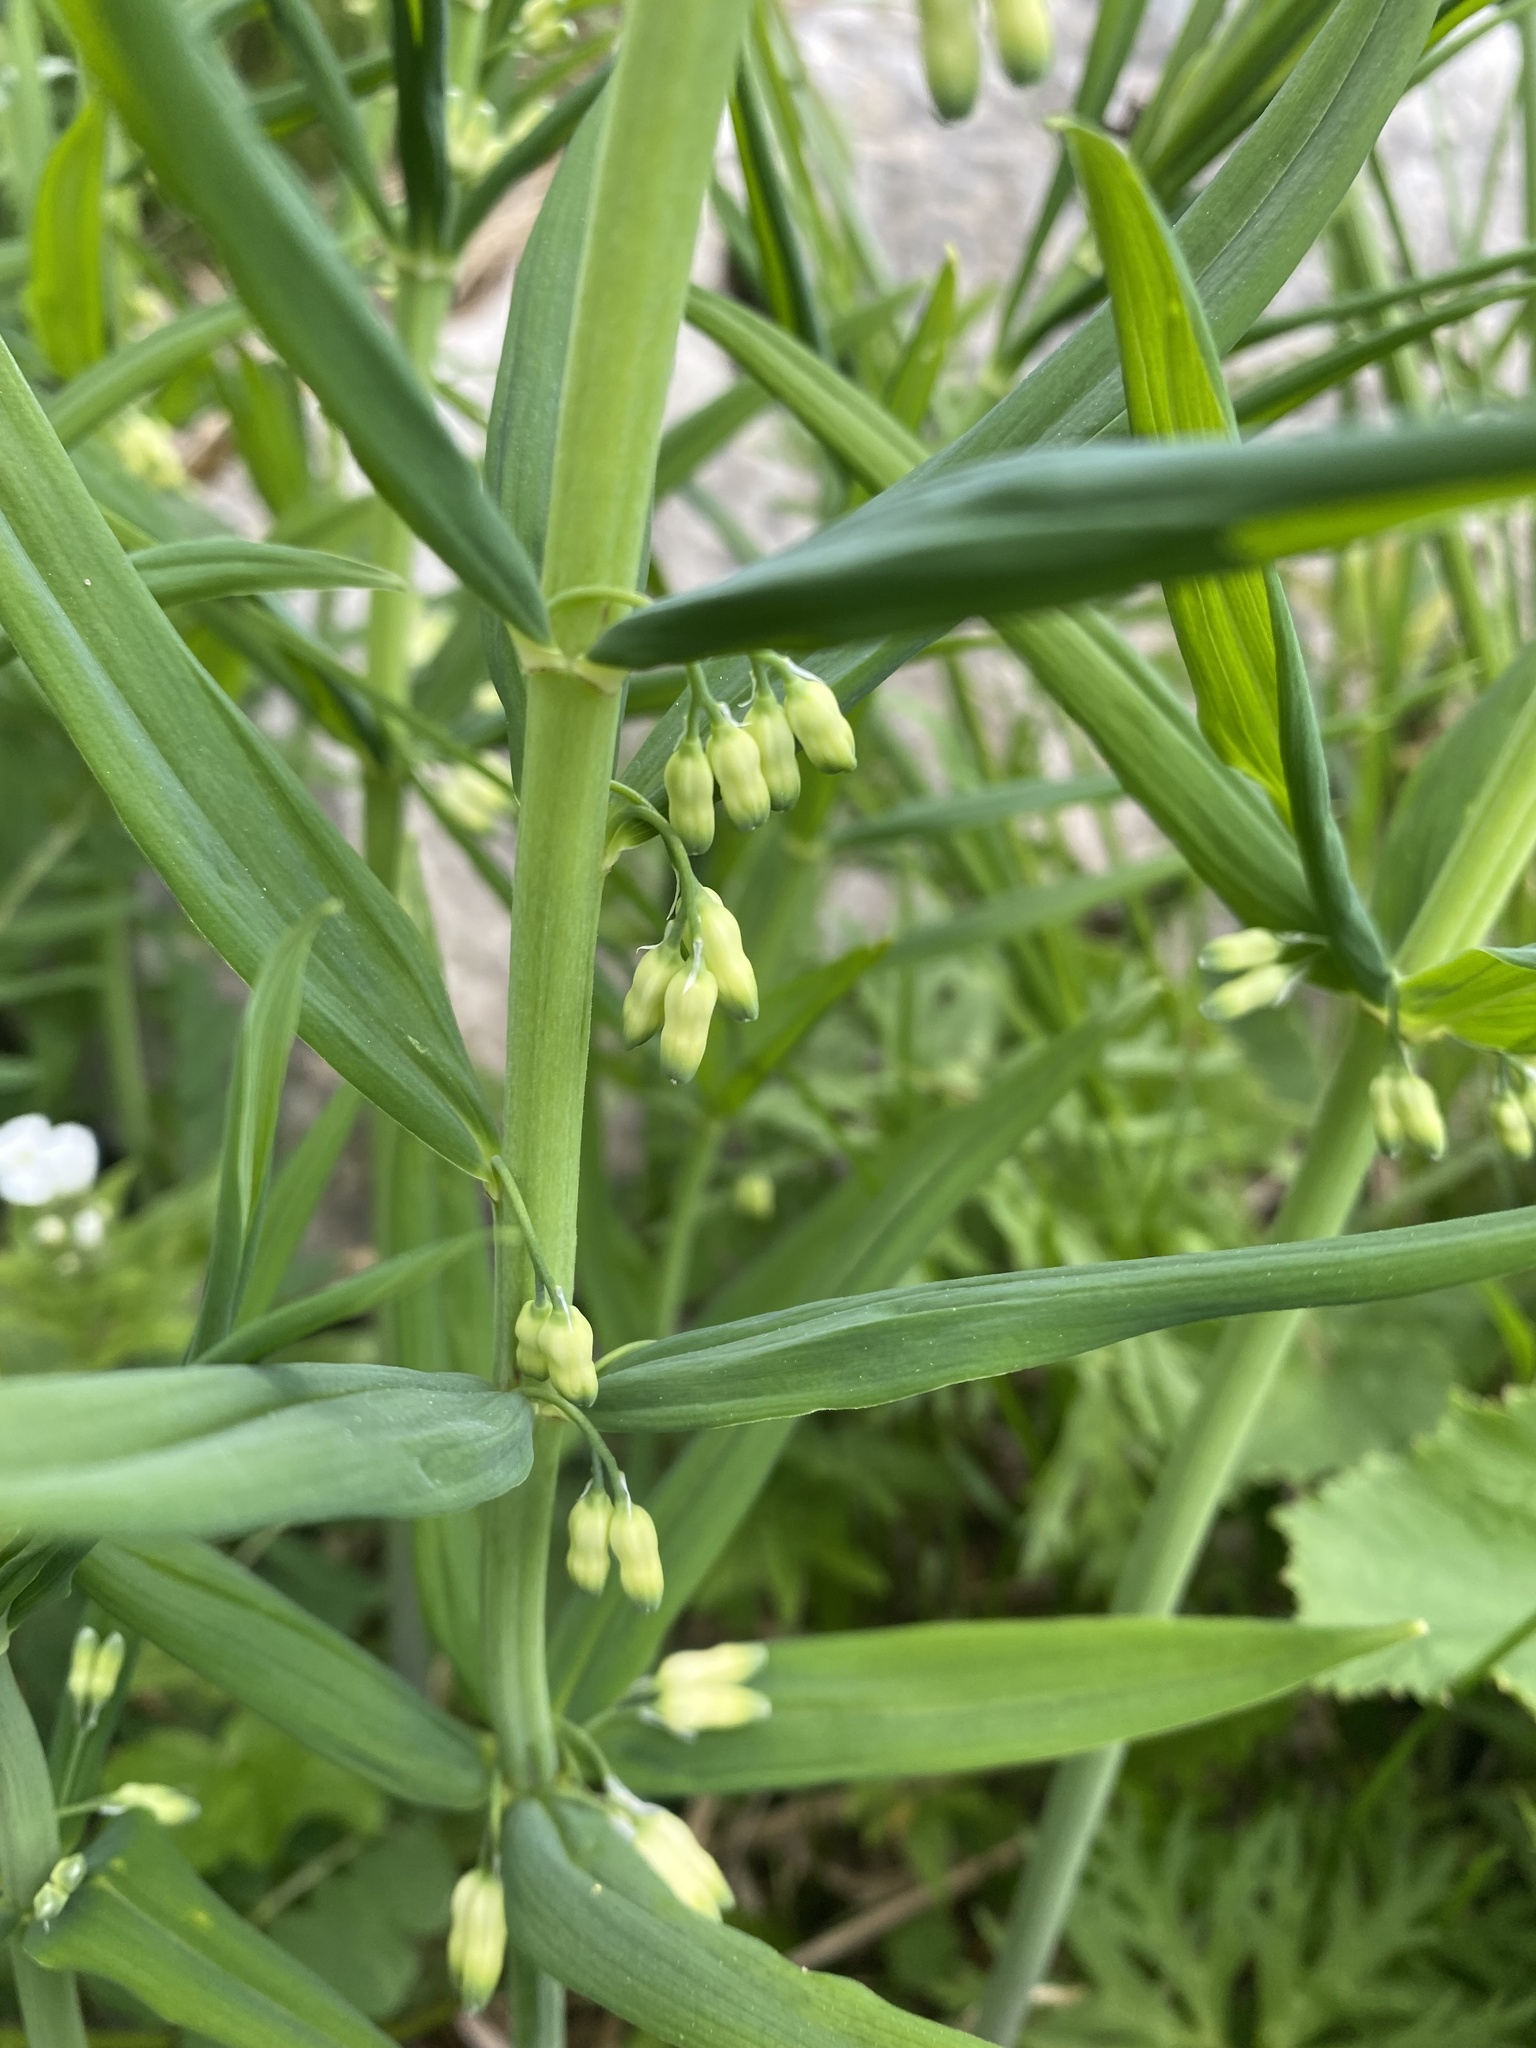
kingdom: Plantae
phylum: Tracheophyta
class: Liliopsida
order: Asparagales
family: Asparagaceae
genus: Polygonatum
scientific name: Polygonatum verticillatum
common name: Whorled solomon's-seal
